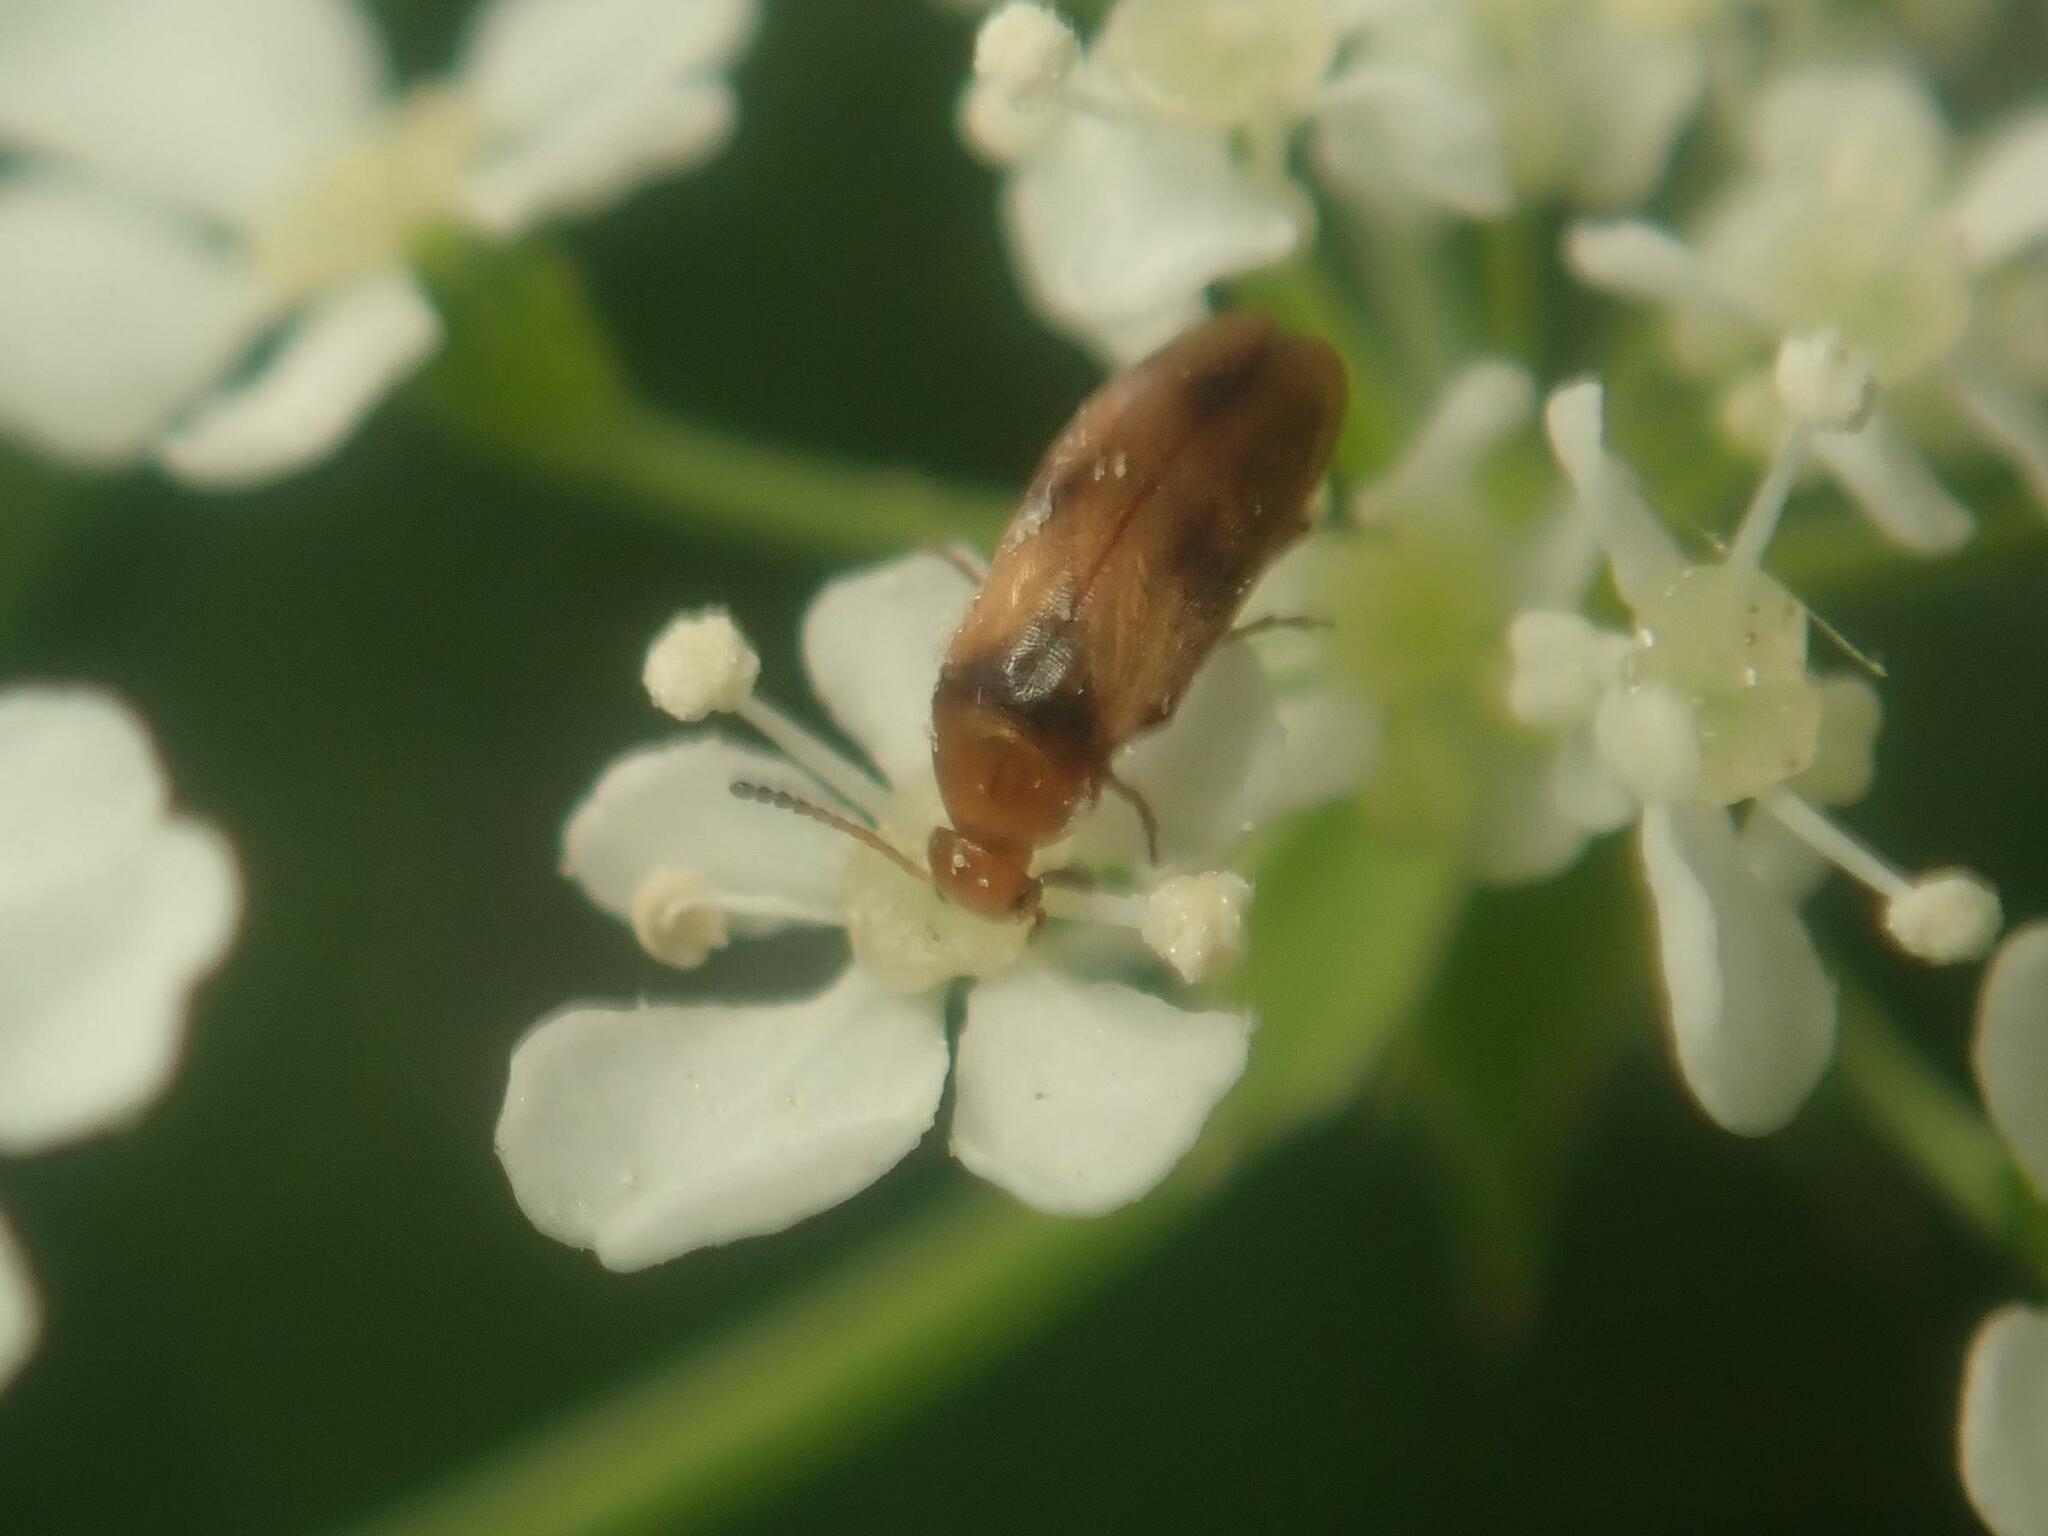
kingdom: Animalia
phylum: Arthropoda
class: Insecta
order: Coleoptera
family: Scraptiidae
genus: Anaspis
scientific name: Anaspis maculata
